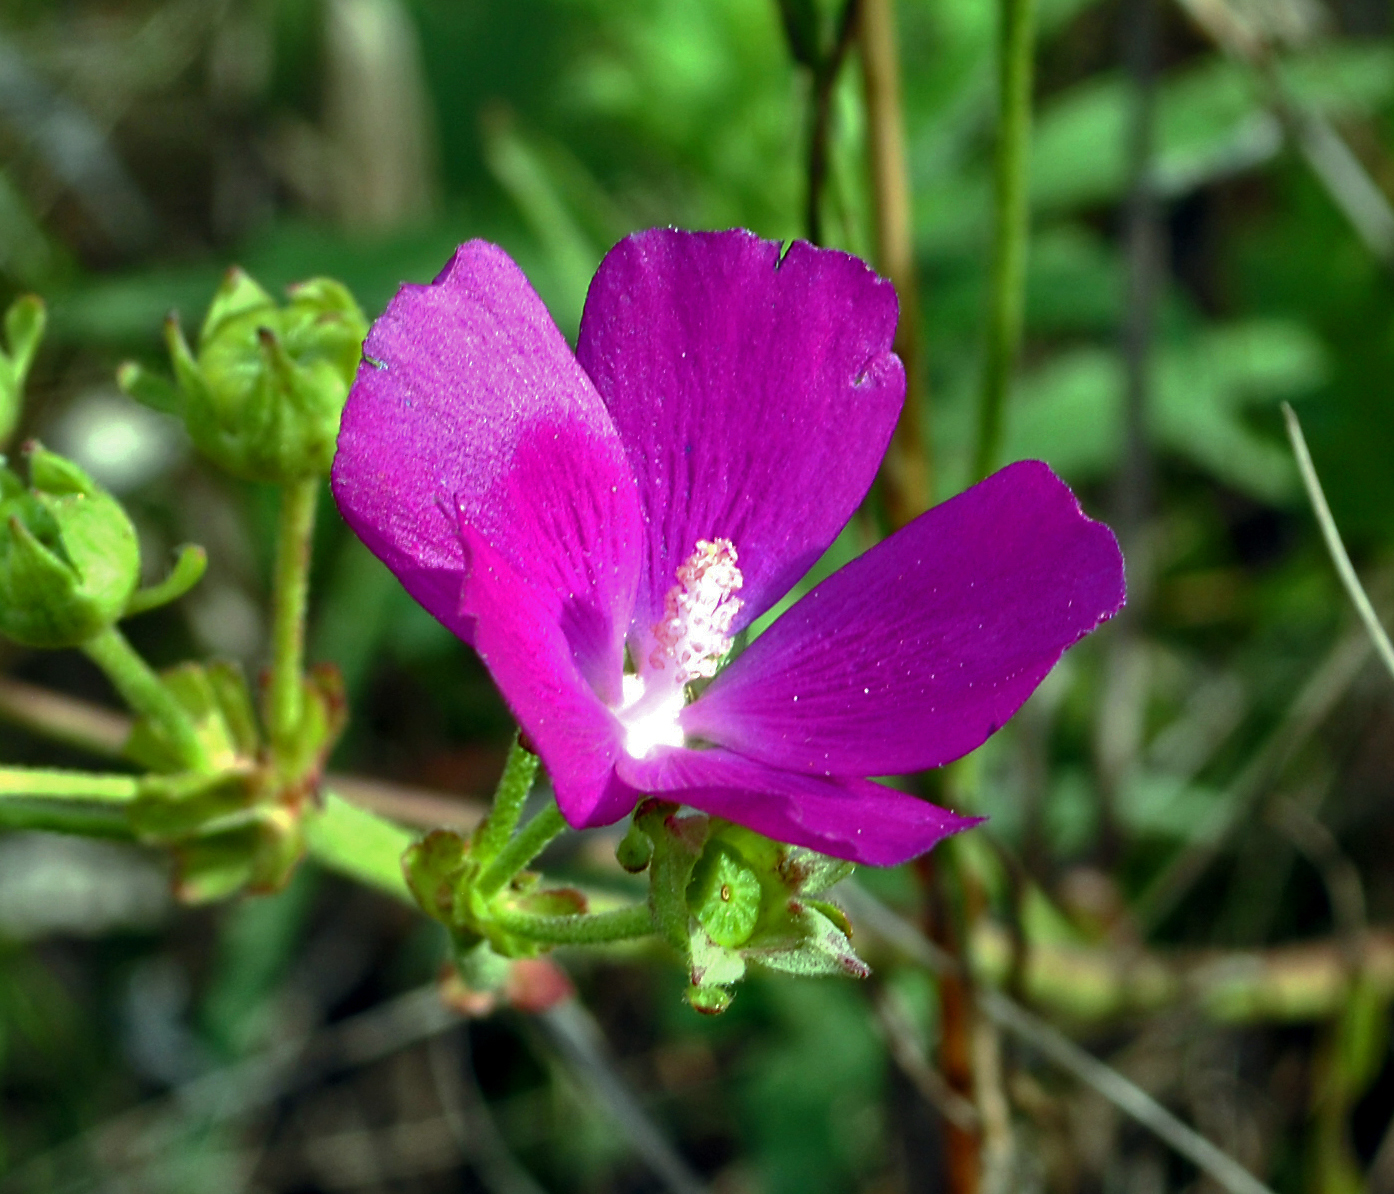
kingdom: Plantae
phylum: Tracheophyta
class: Magnoliopsida
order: Malvales
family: Malvaceae
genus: Callirhoe
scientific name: Callirhoe triangulata
